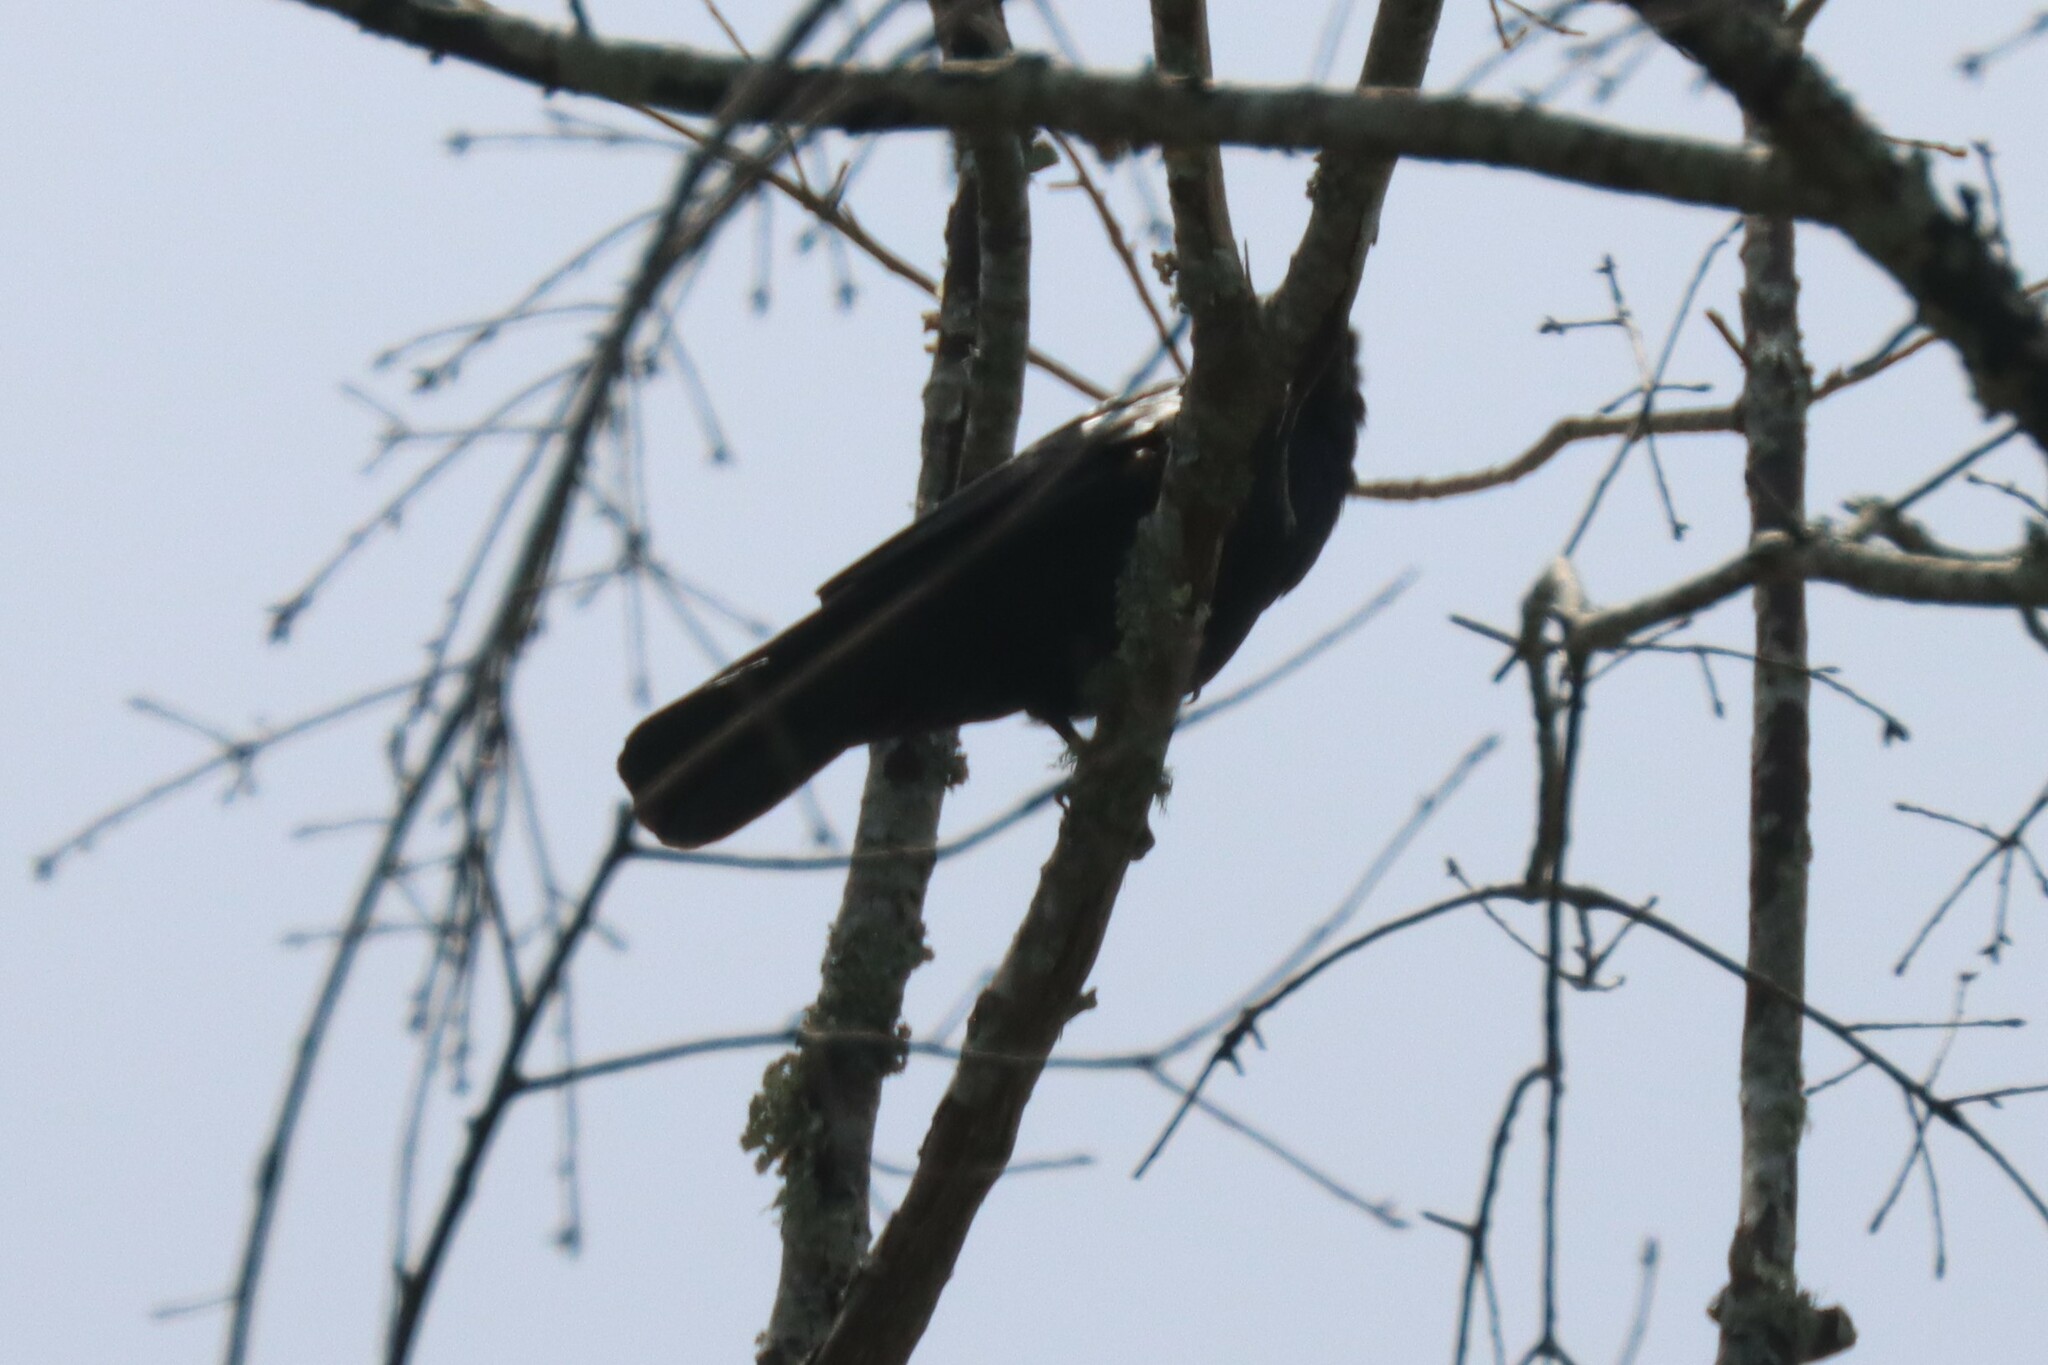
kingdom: Animalia
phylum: Chordata
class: Aves
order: Passeriformes
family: Corvidae
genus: Corvus
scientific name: Corvus ossifragus
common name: Fish crow
